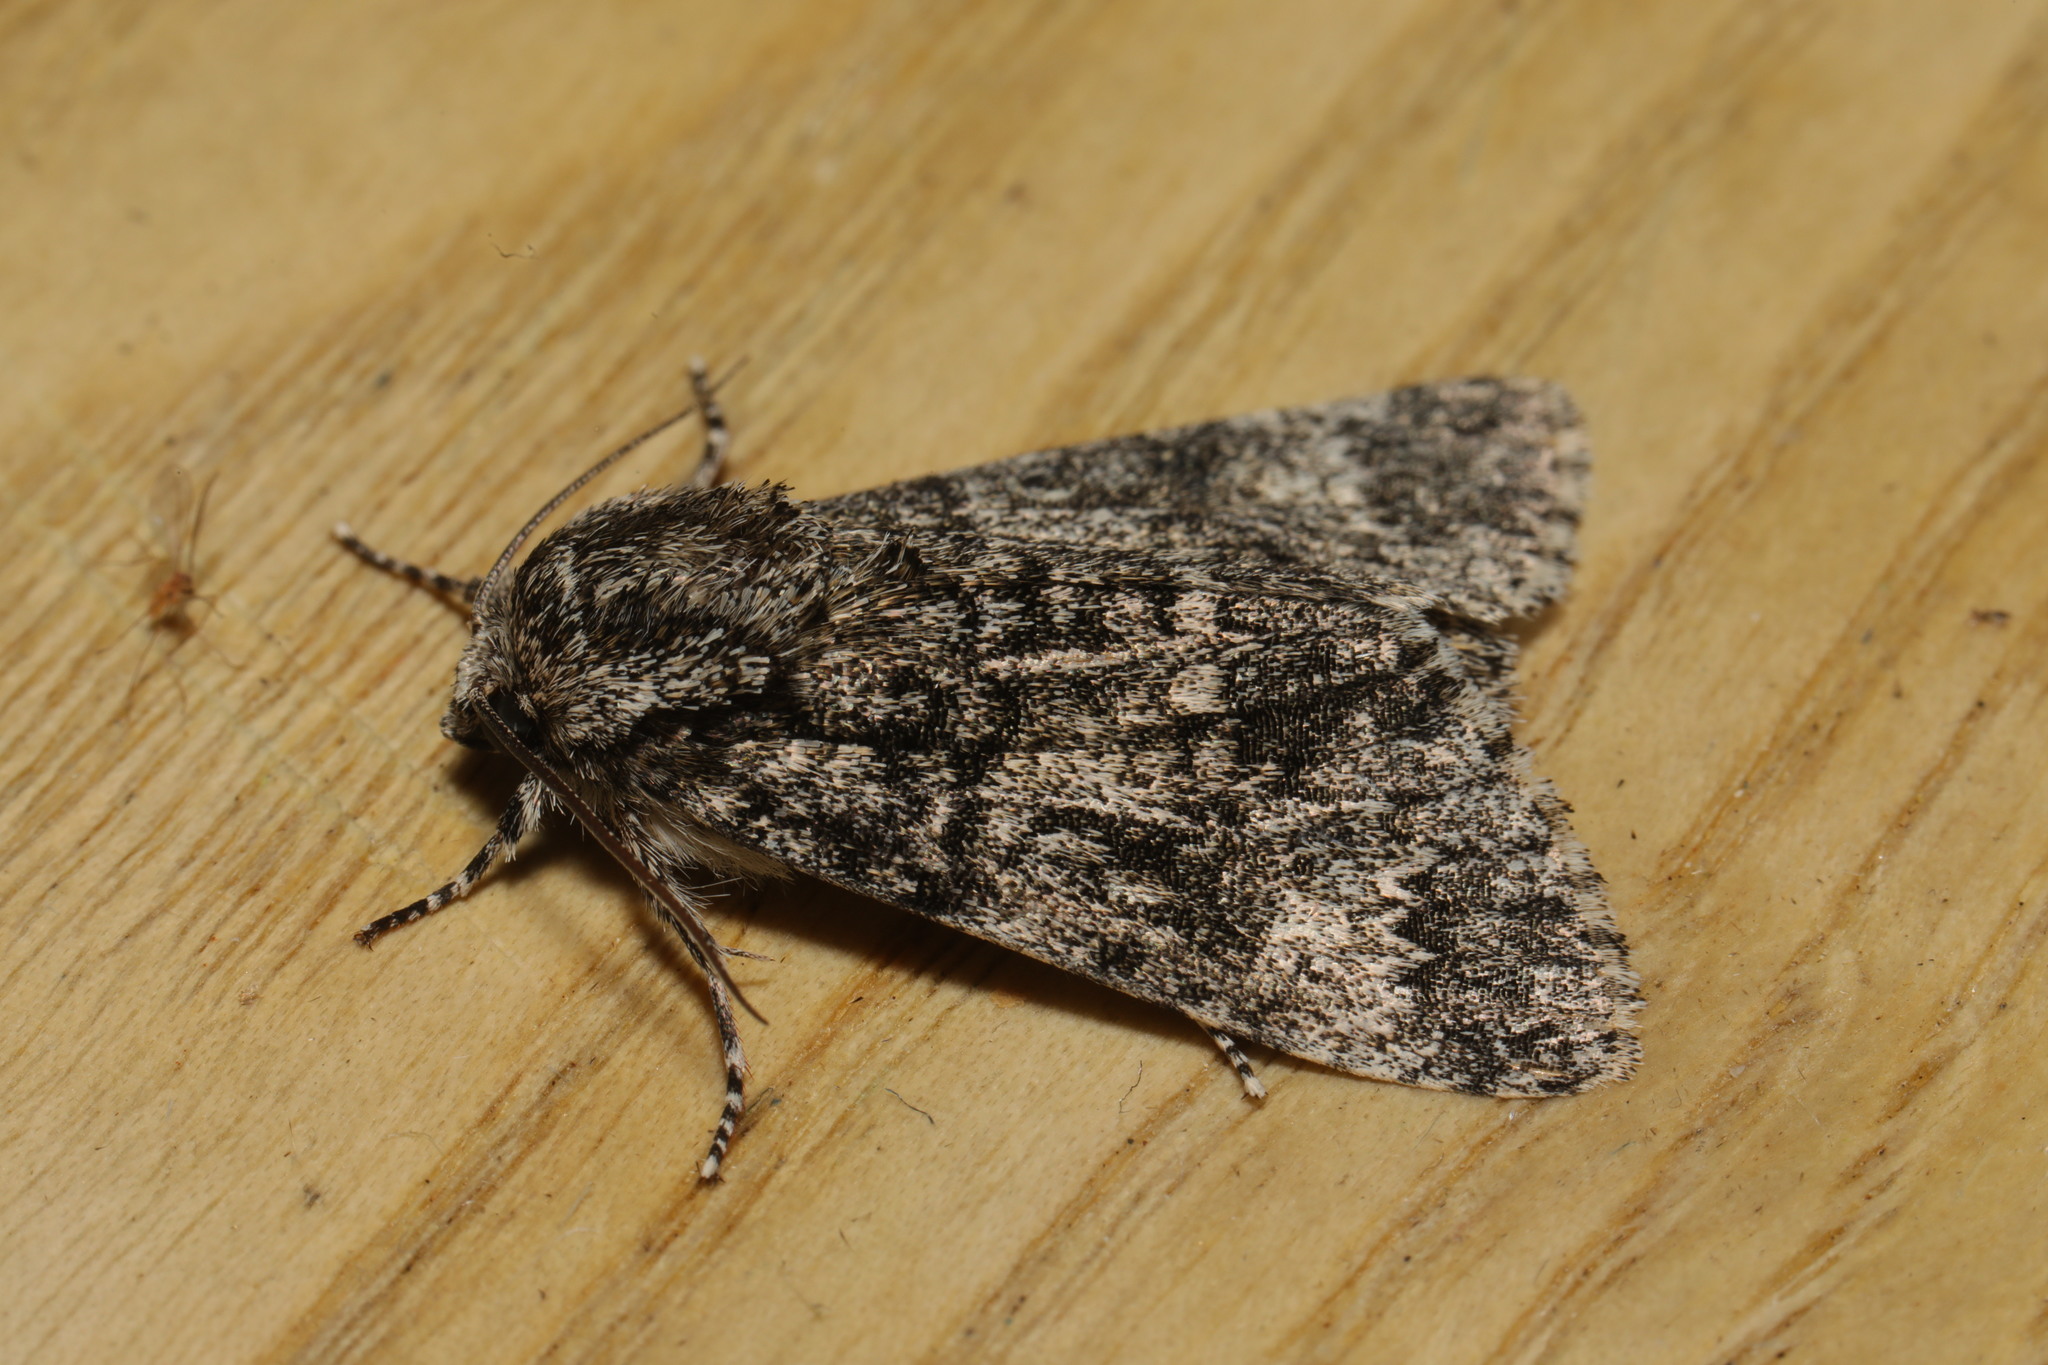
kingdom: Animalia
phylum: Arthropoda
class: Insecta
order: Lepidoptera
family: Noctuidae
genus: Acronicta
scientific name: Acronicta megacephala
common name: Poplar grey
